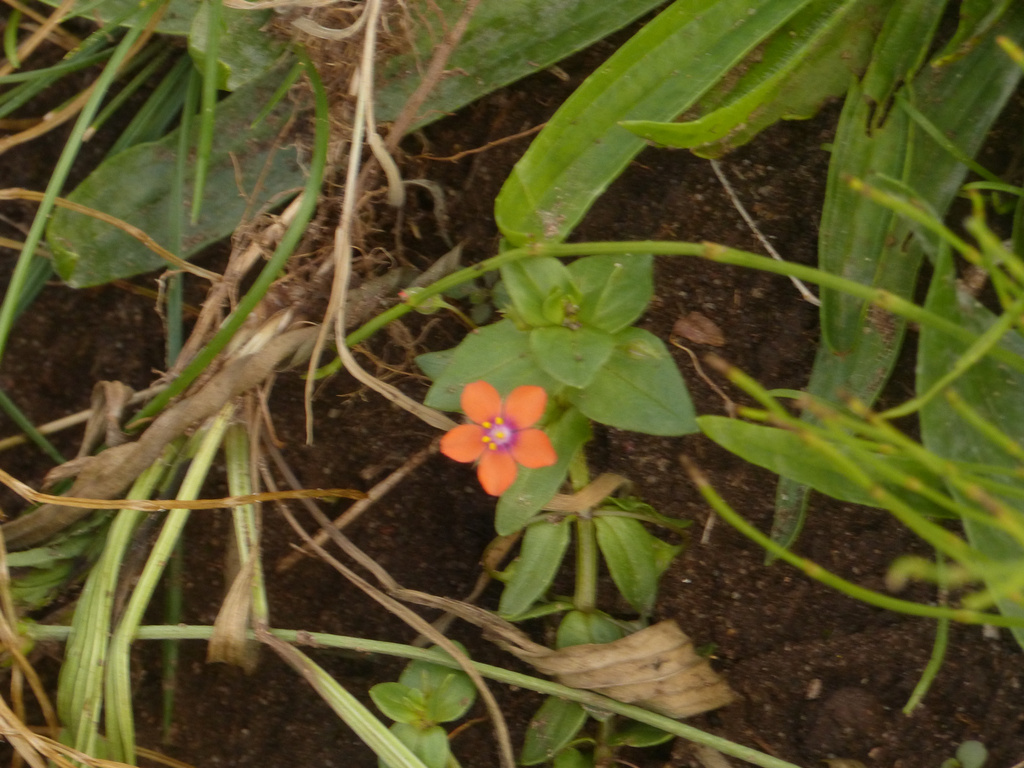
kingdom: Plantae
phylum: Tracheophyta
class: Magnoliopsida
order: Ericales
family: Primulaceae
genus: Lysimachia
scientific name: Lysimachia arvensis
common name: Scarlet pimpernel
